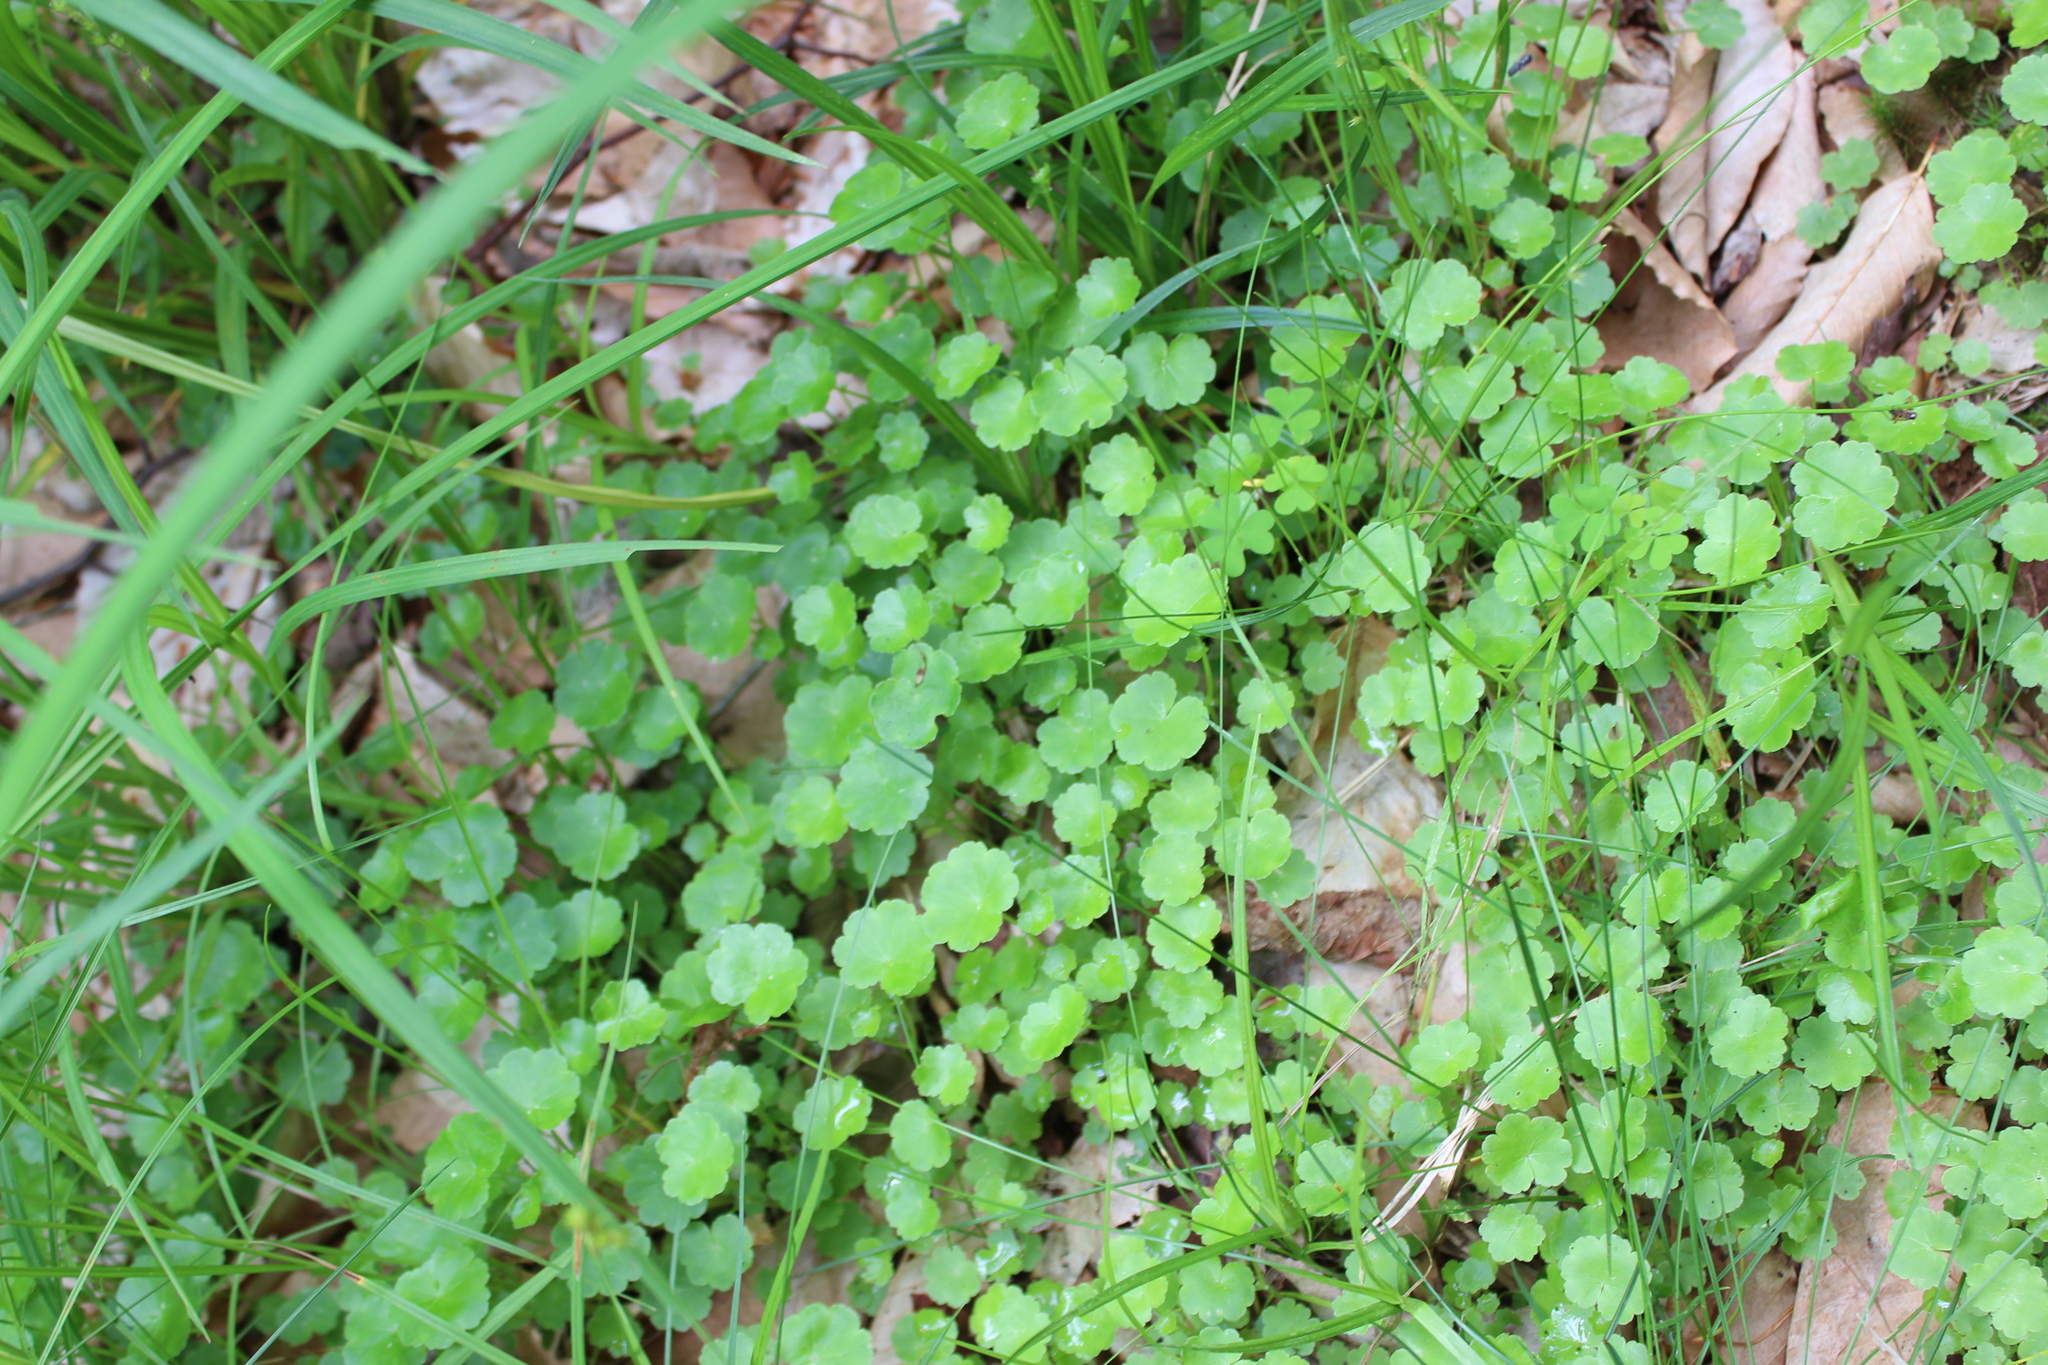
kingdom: Plantae
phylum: Tracheophyta
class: Magnoliopsida
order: Apiales
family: Araliaceae
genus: Hydrocotyle
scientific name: Hydrocotyle americana
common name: American water-pennywort
